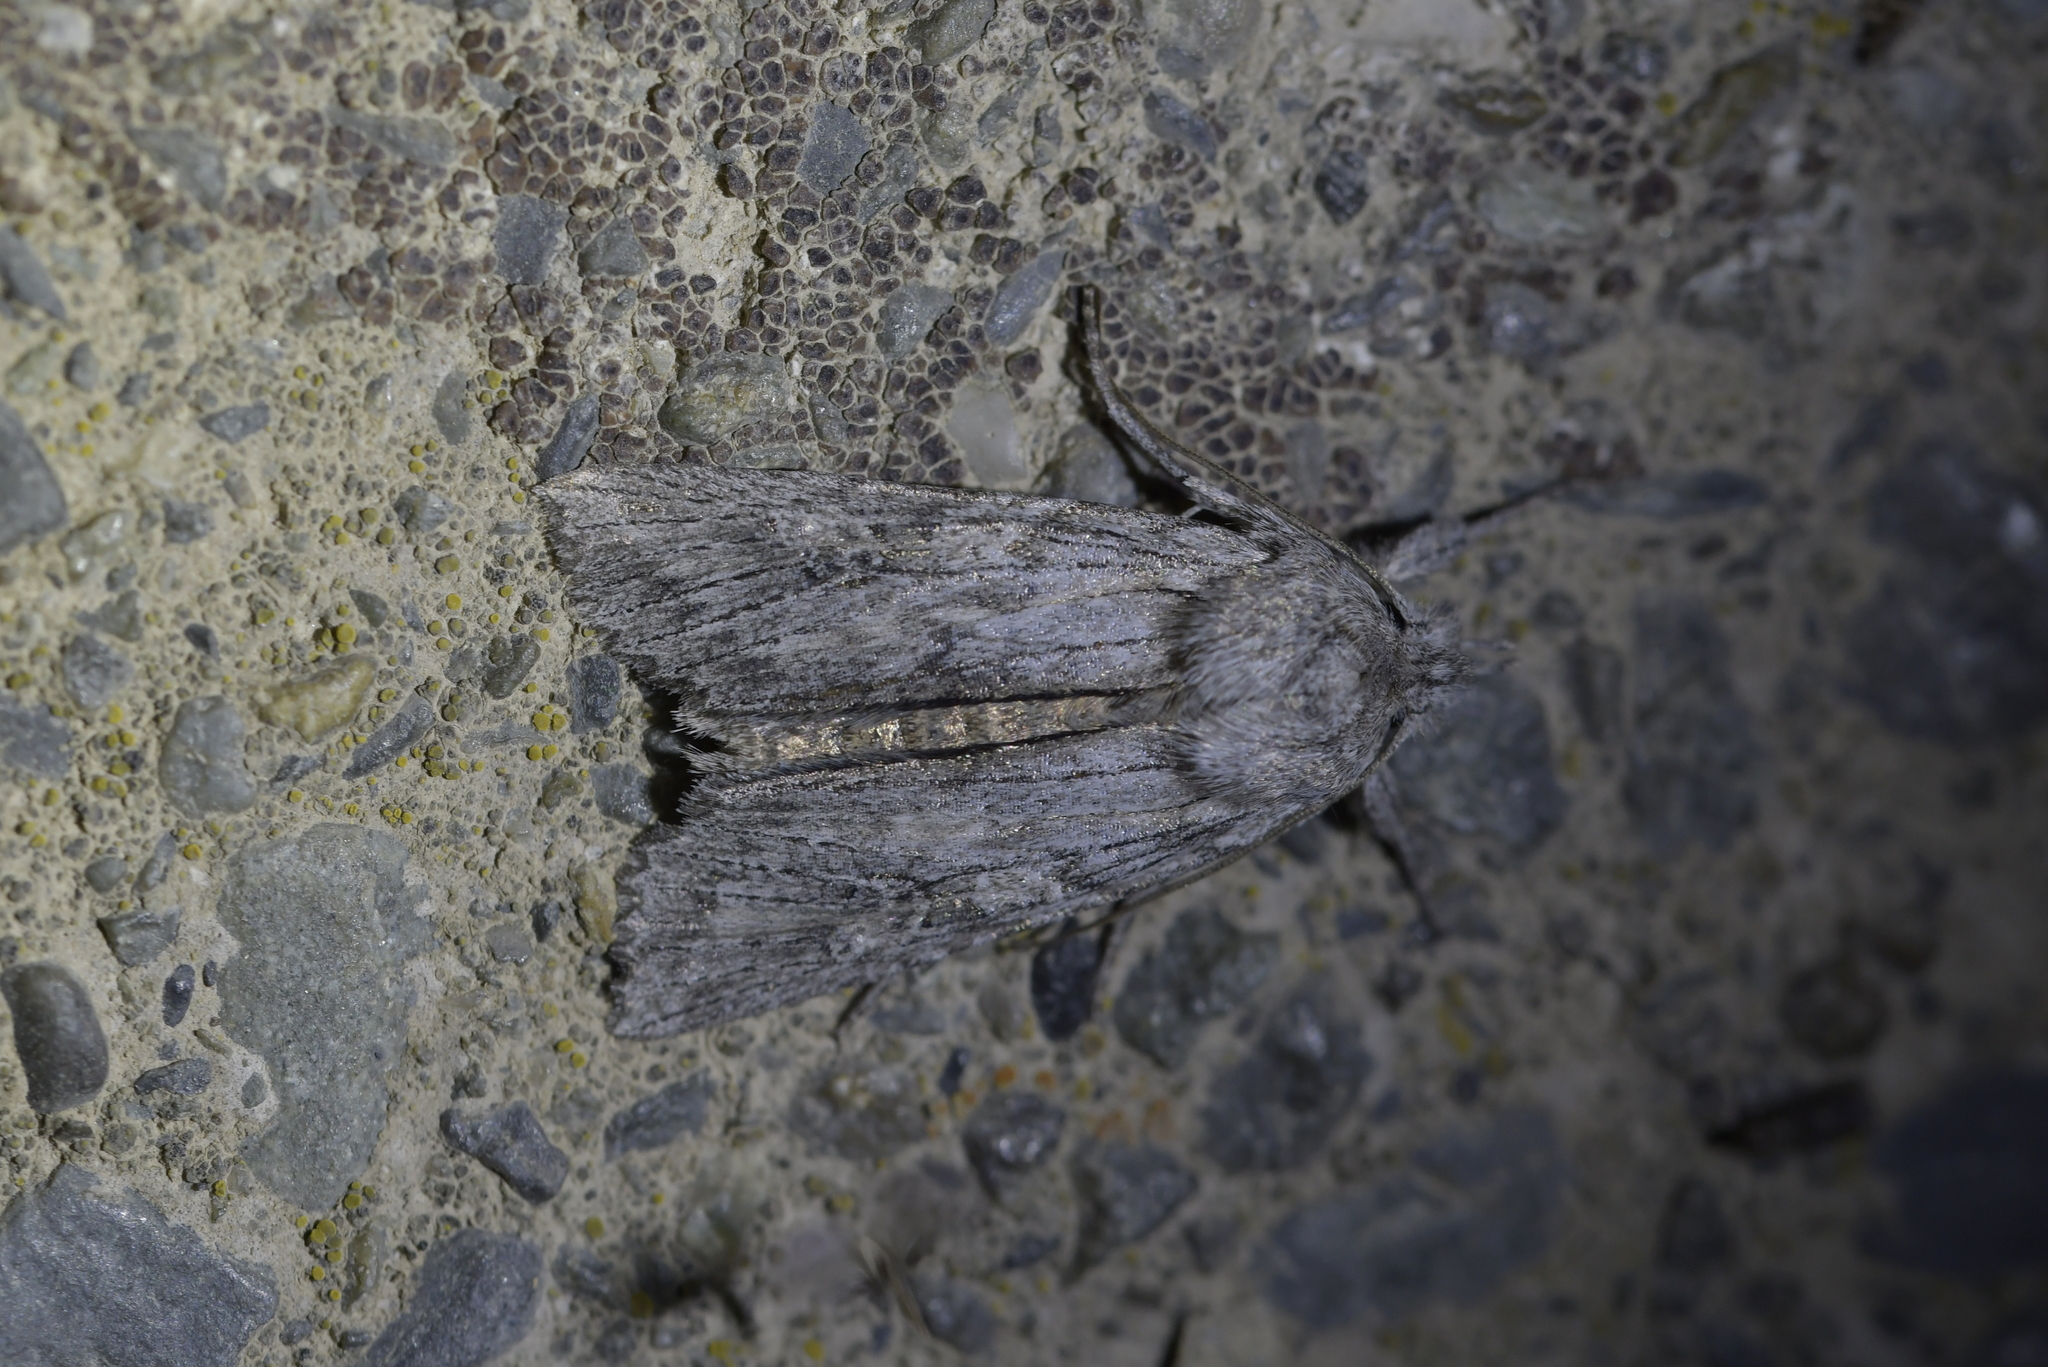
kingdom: Animalia
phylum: Arthropoda
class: Insecta
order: Lepidoptera
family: Noctuidae
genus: Physetica
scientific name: Physetica phricias
